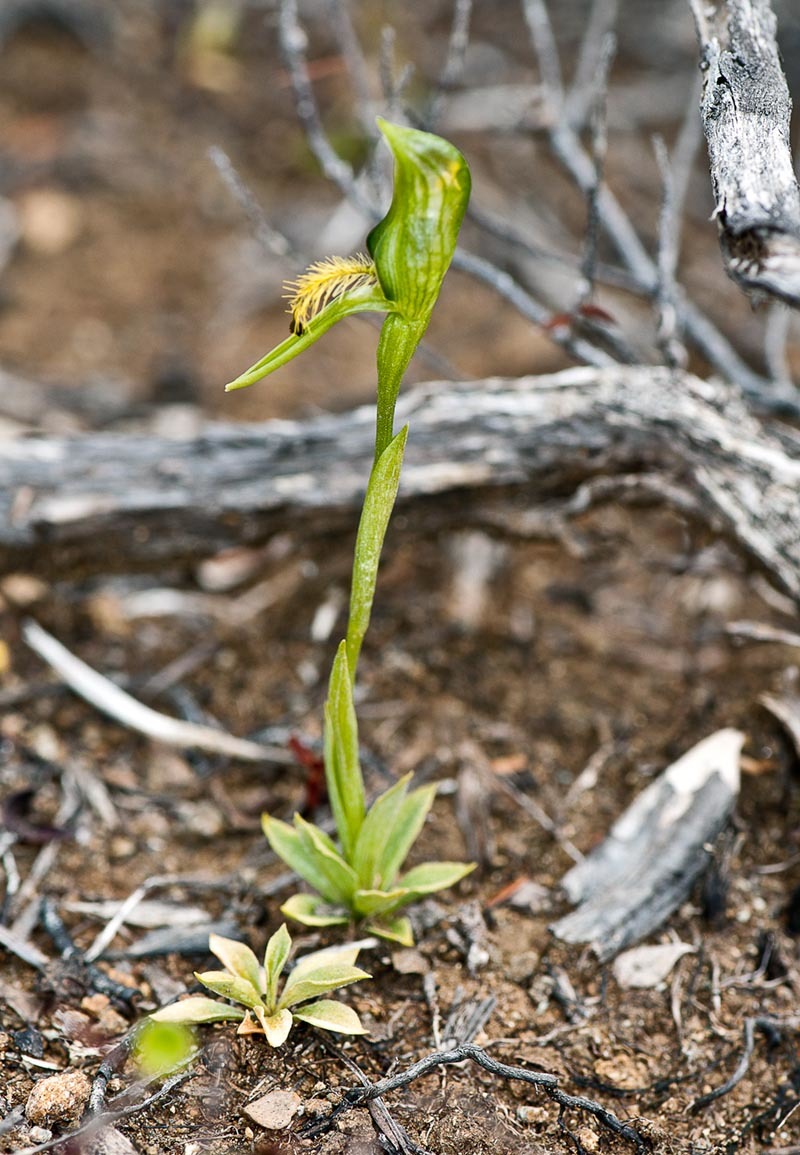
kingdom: Plantae
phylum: Tracheophyta
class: Liliopsida
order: Asparagales
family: Orchidaceae
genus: Pterostylis
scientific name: Pterostylis tasmanica
